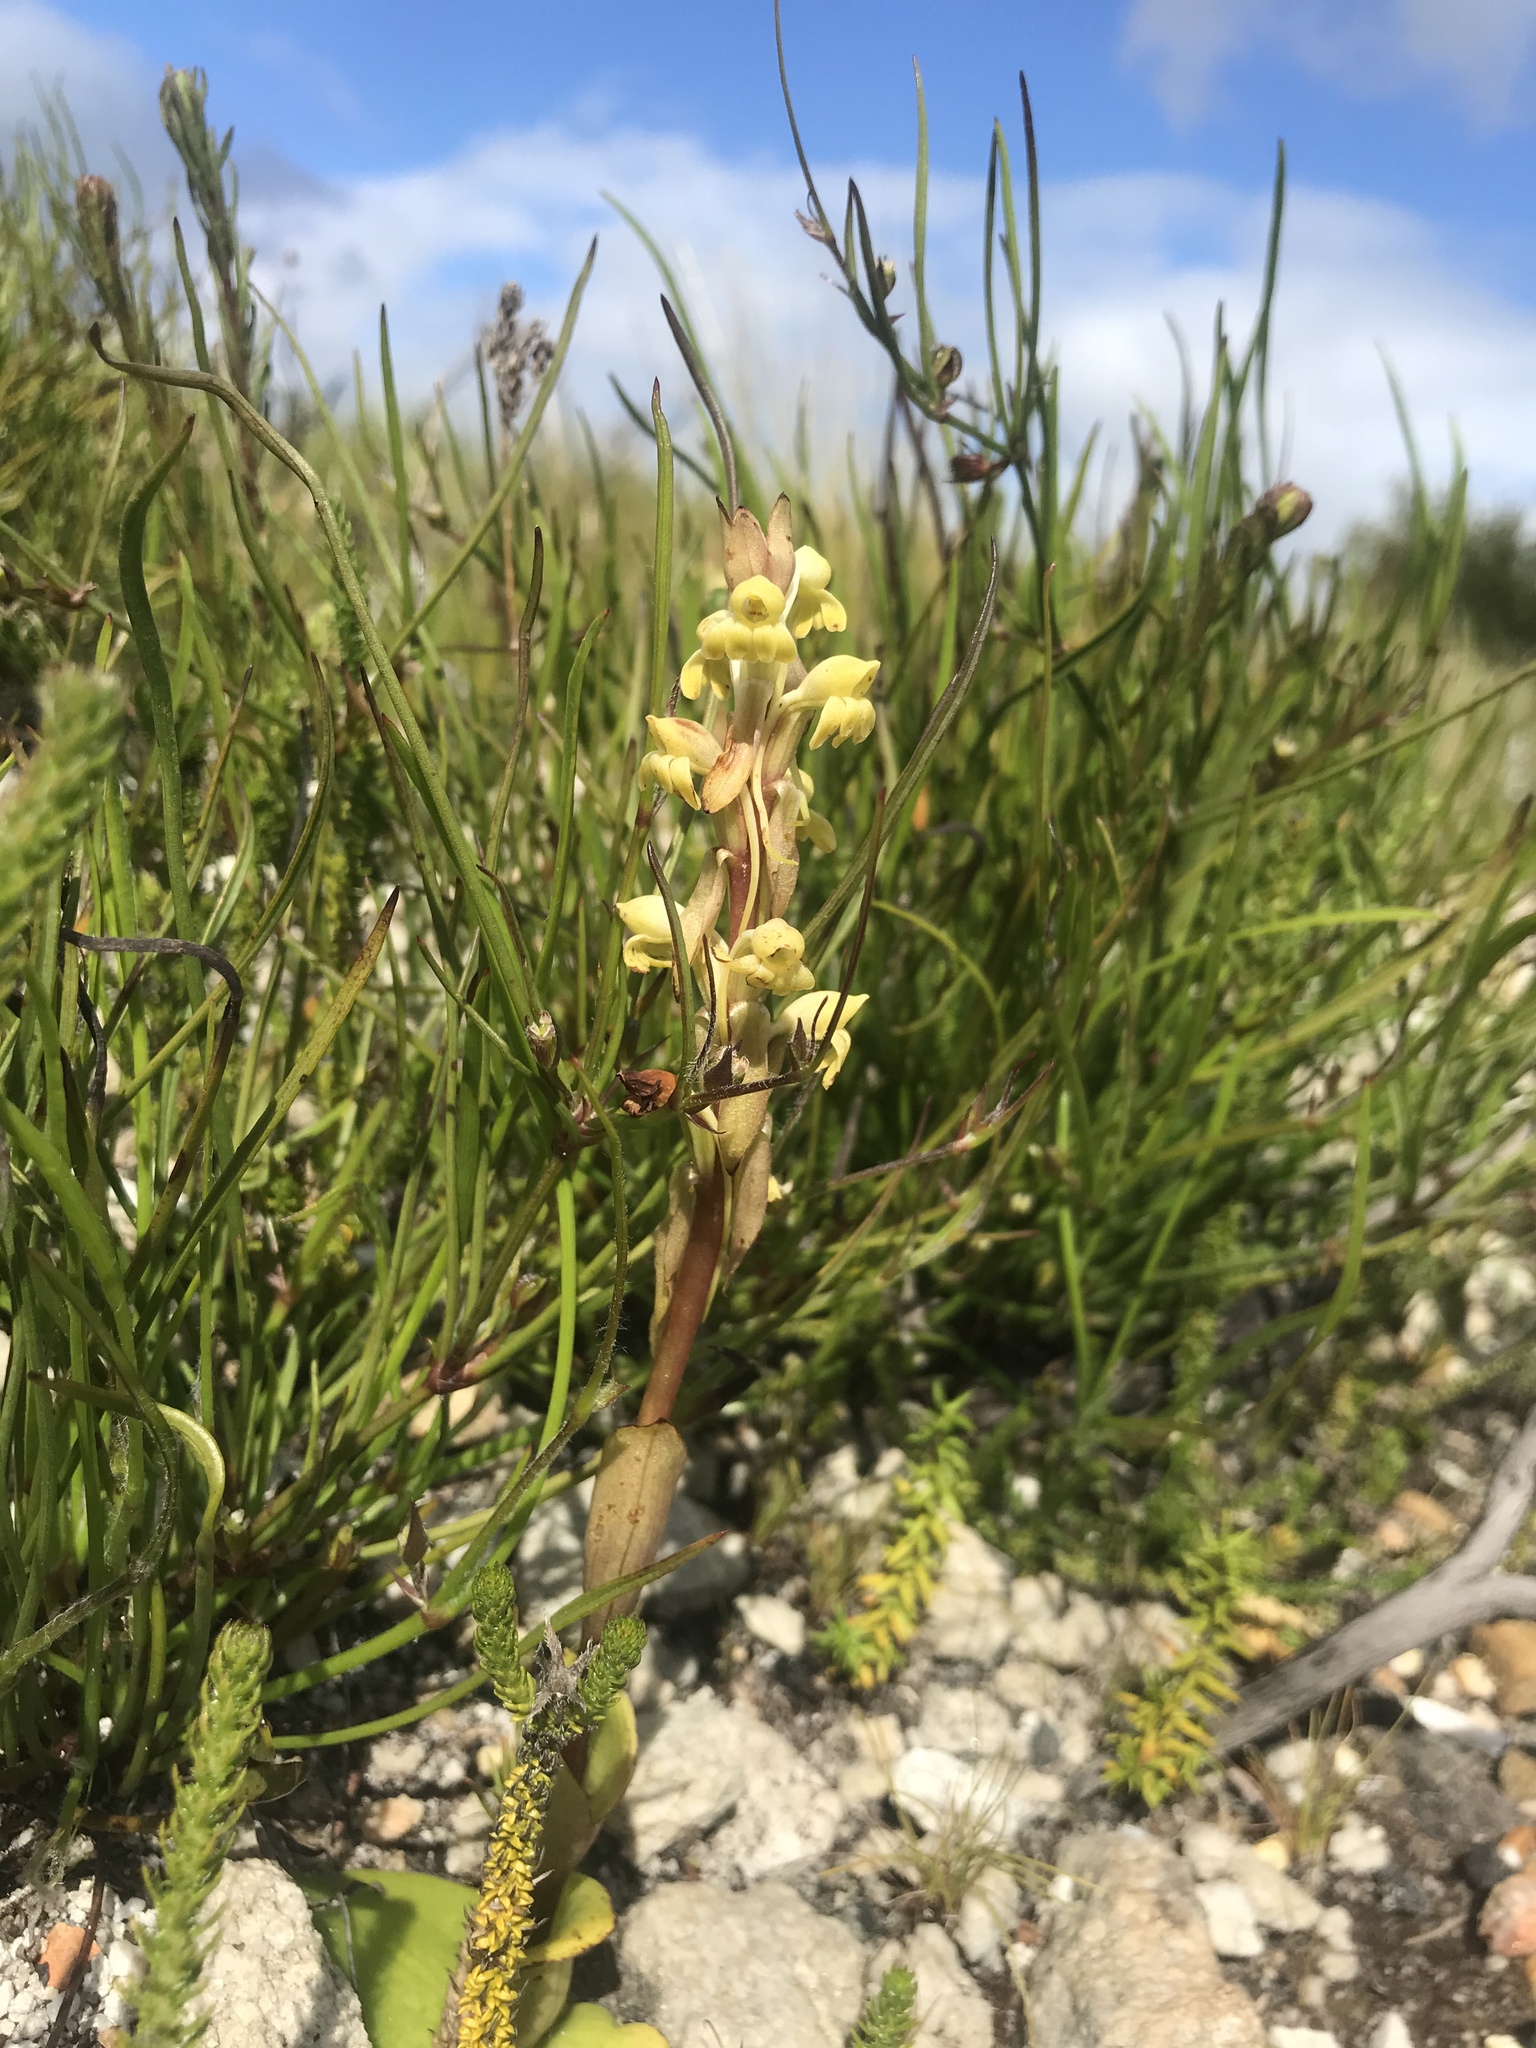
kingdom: Plantae
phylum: Tracheophyta
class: Liliopsida
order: Asparagales
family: Orchidaceae
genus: Satyrium
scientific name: Satyrium bicorne
